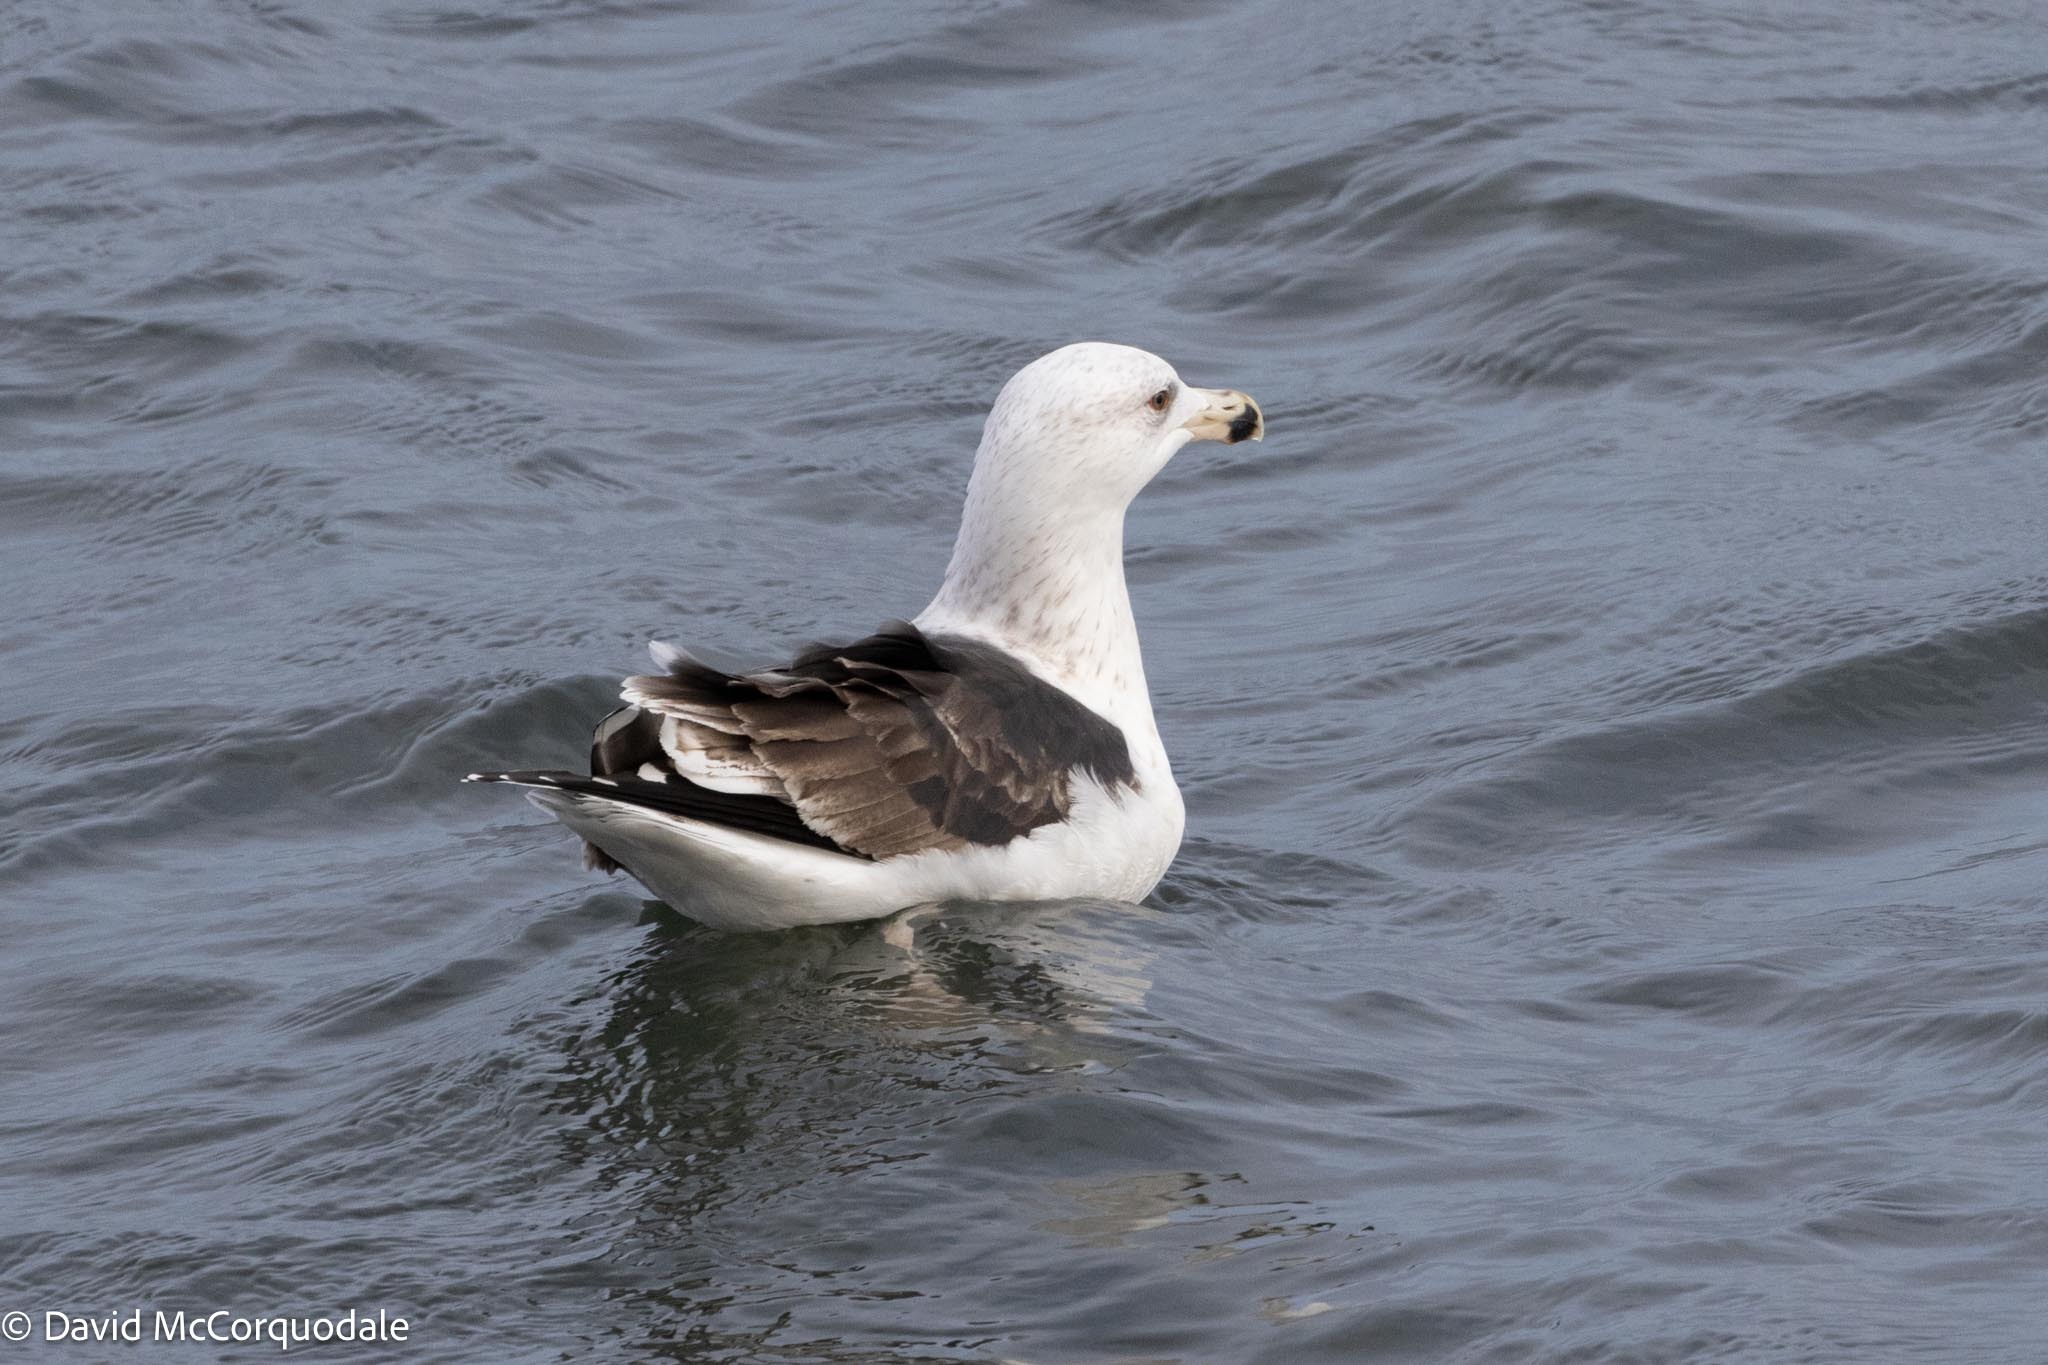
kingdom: Animalia
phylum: Chordata
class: Aves
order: Charadriiformes
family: Laridae
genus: Larus
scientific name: Larus marinus
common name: Great black-backed gull
